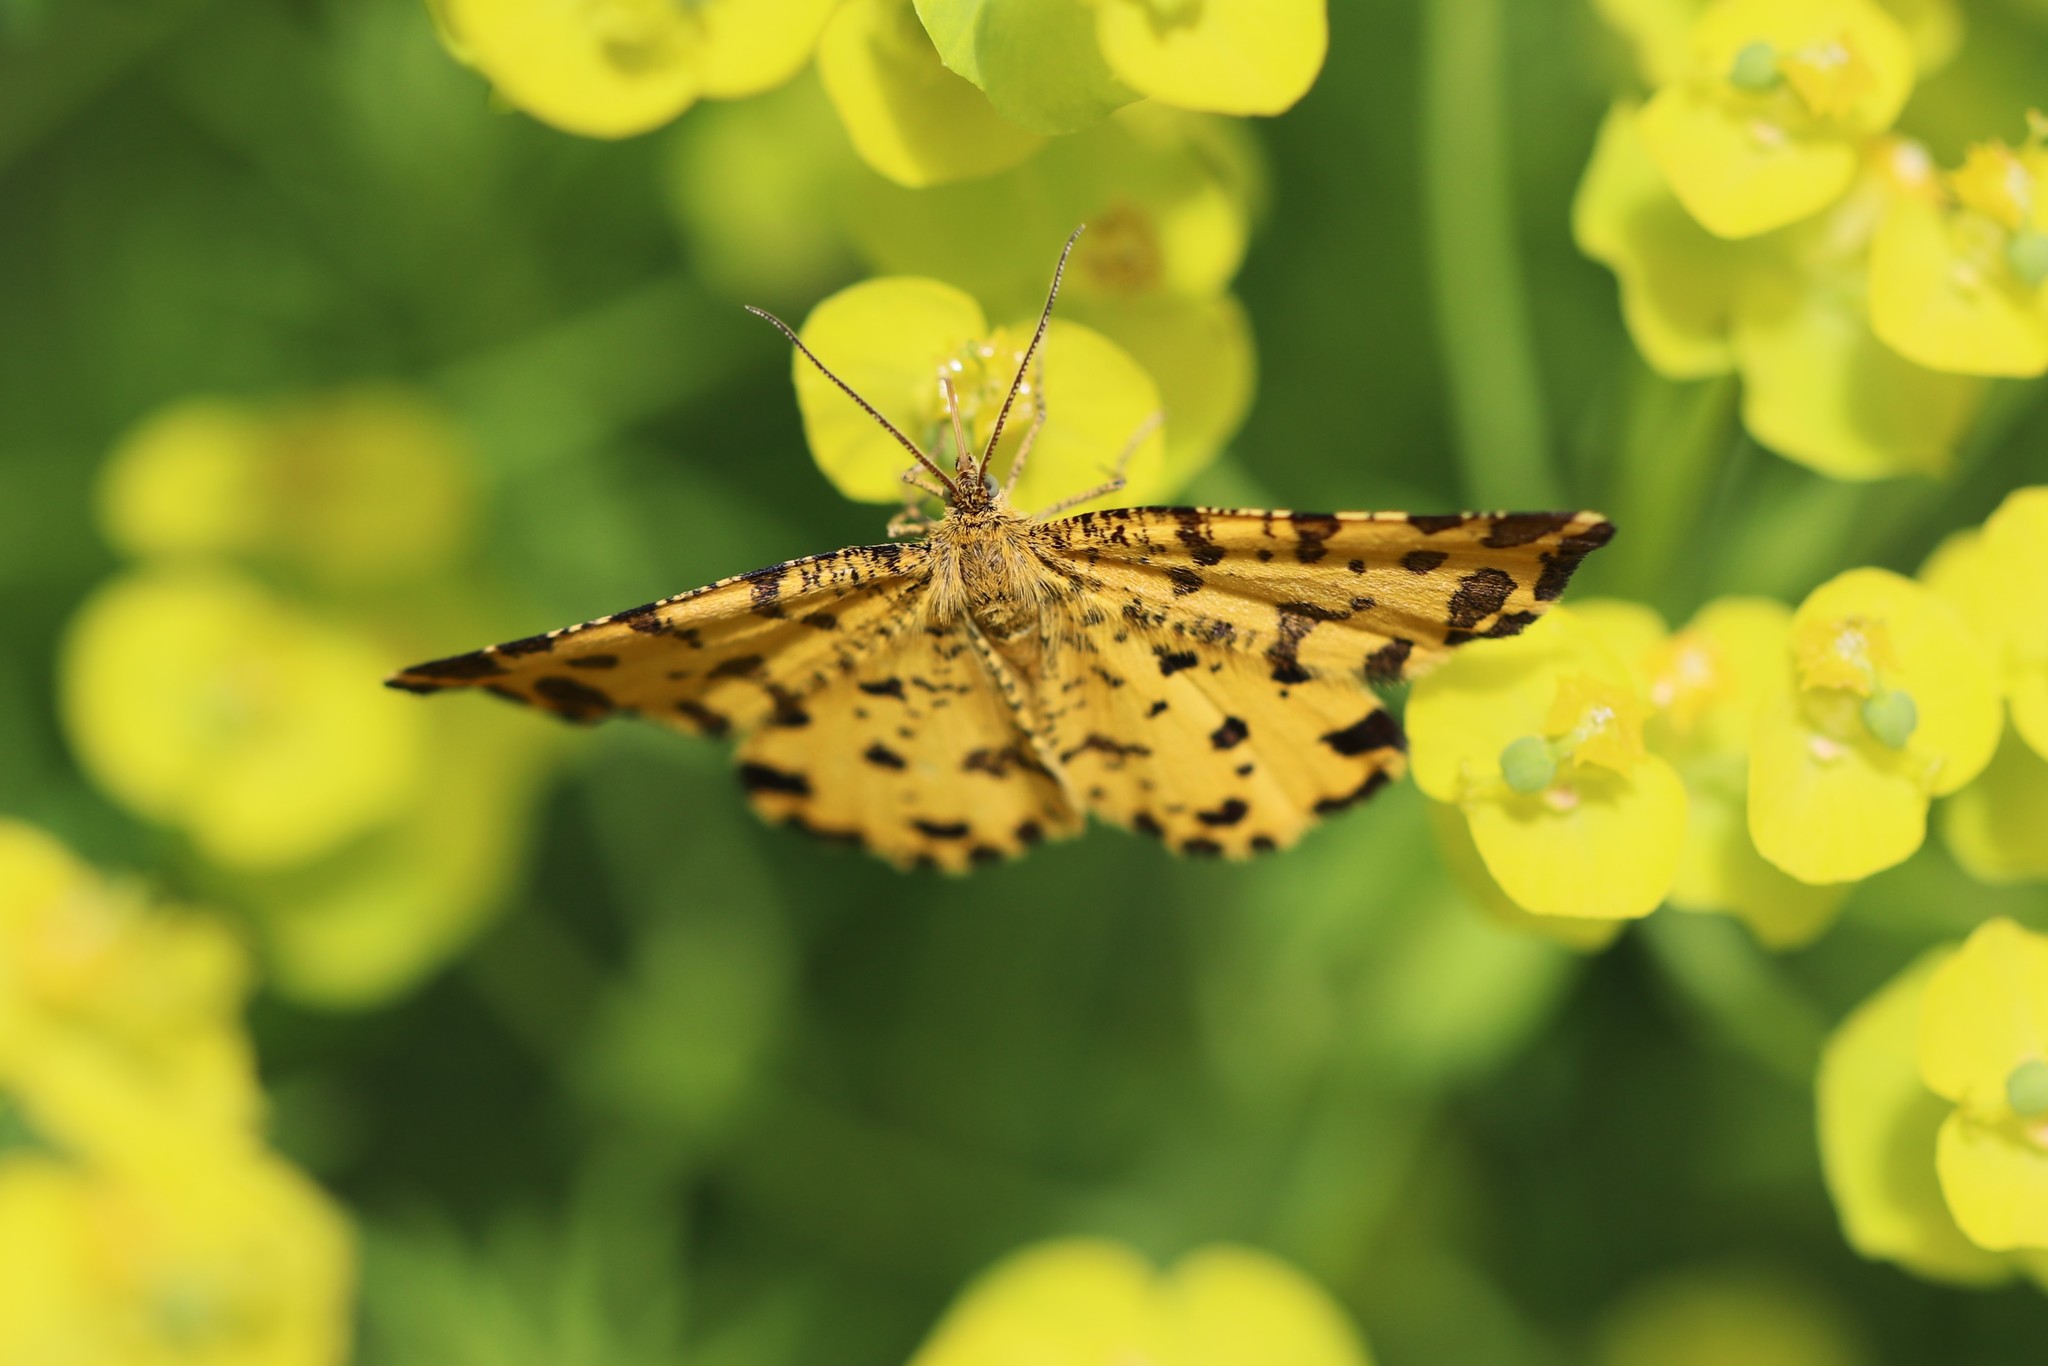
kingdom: Animalia
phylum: Arthropoda
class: Insecta
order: Lepidoptera
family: Geometridae
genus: Pseudopanthera
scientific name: Pseudopanthera macularia
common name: Speckled yellow
